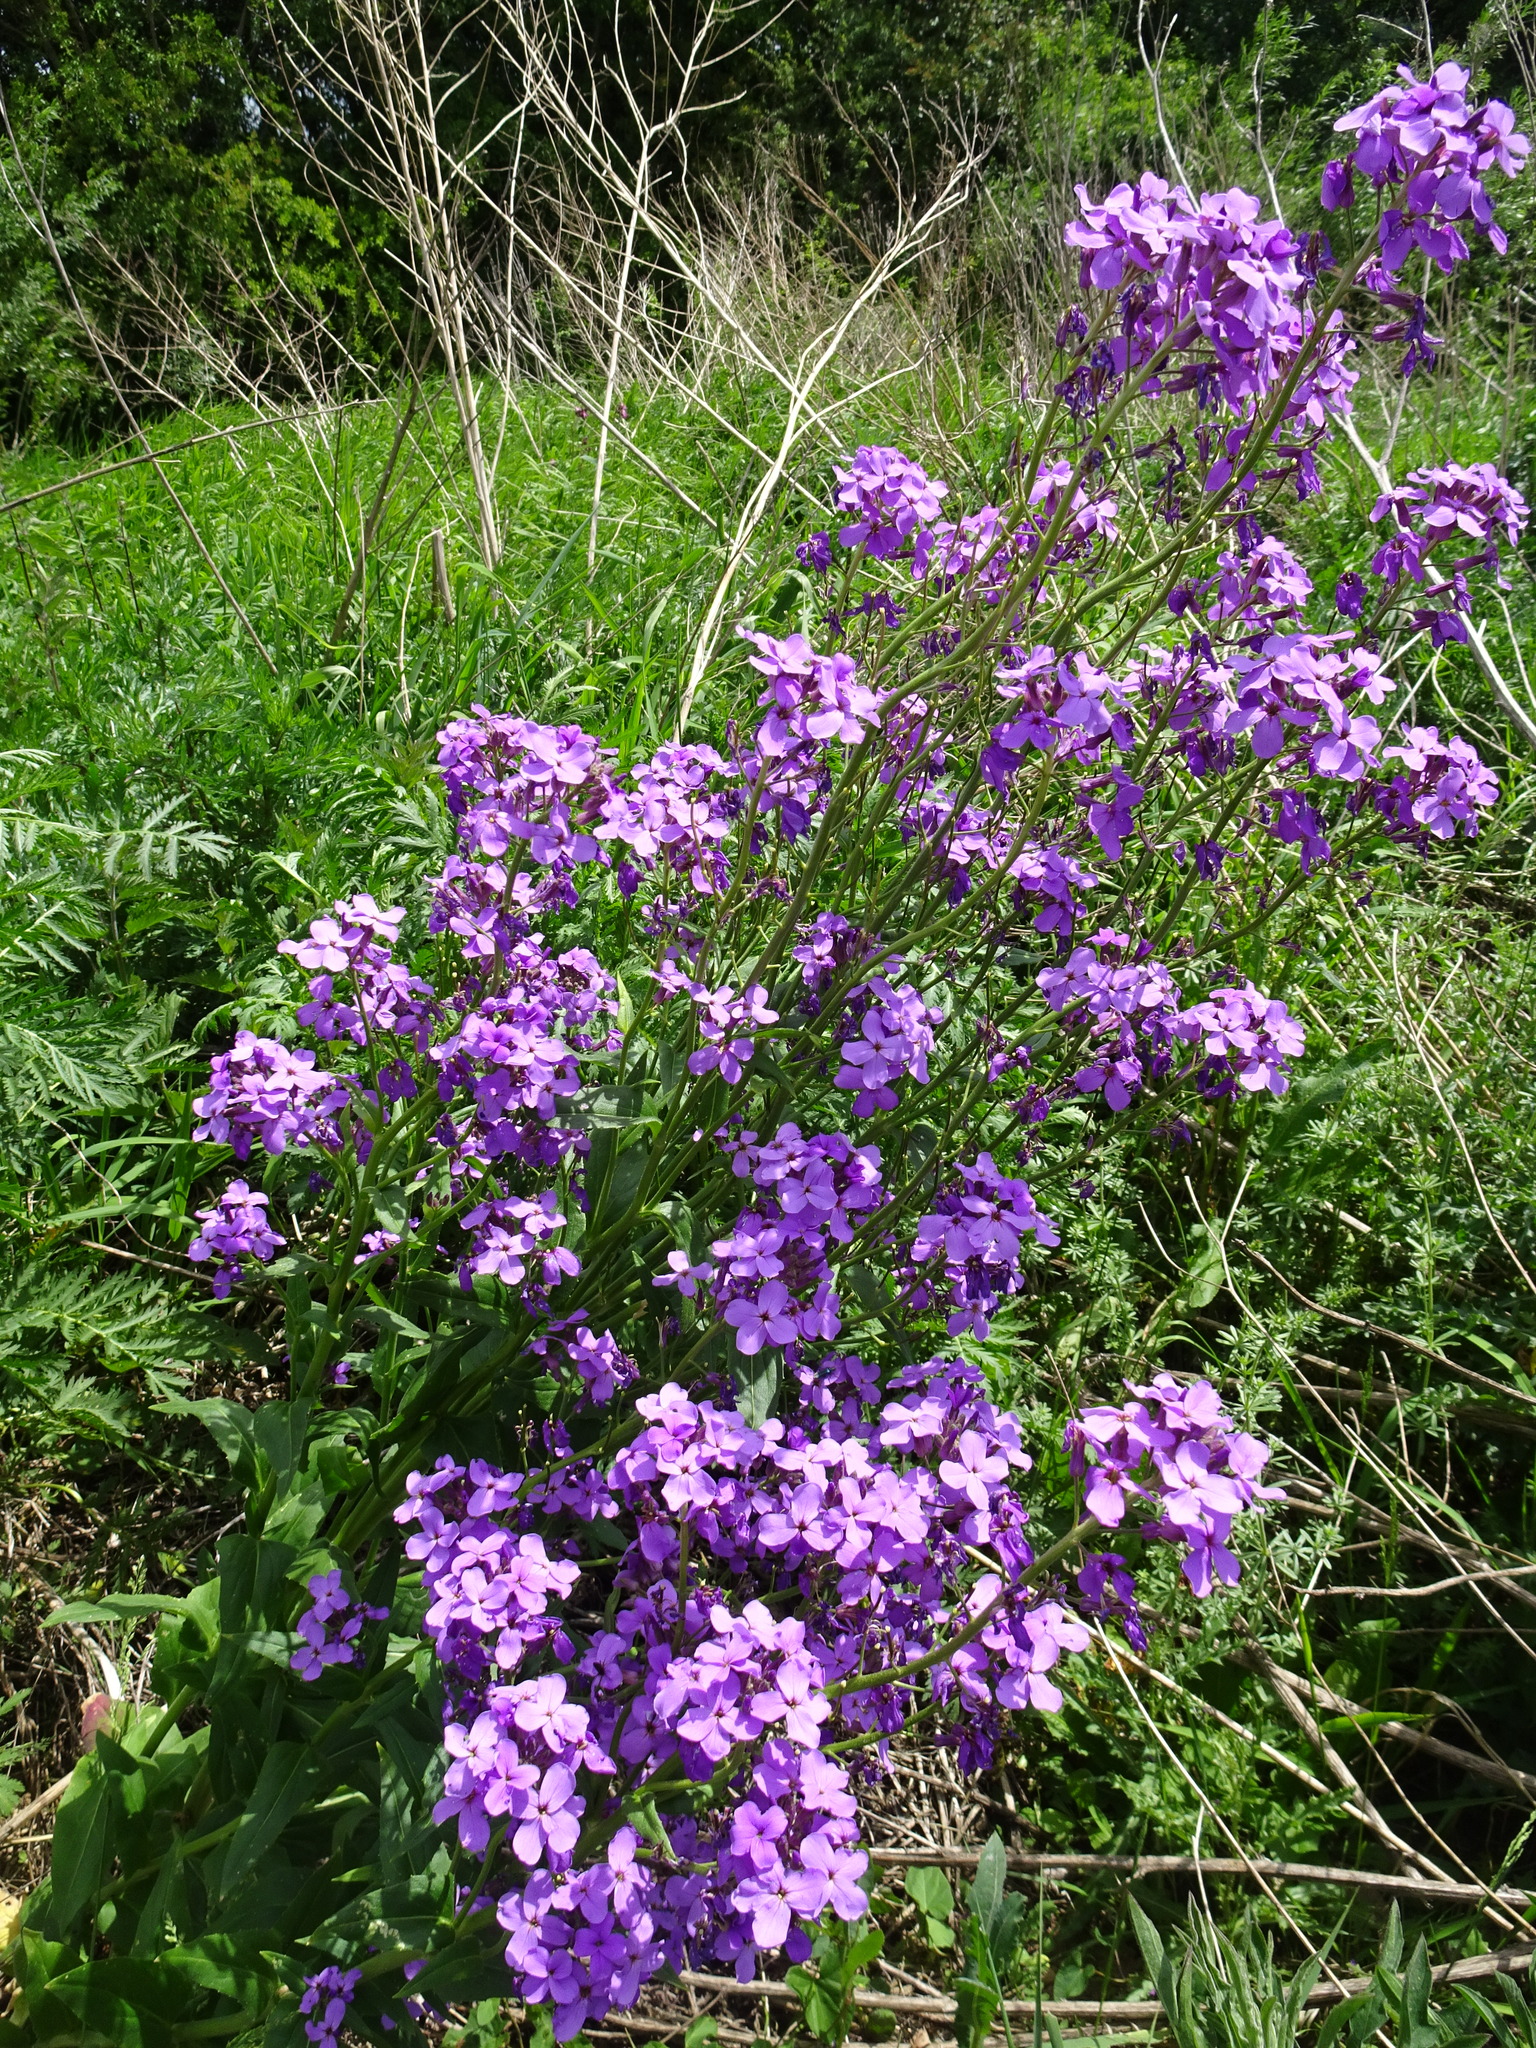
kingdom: Plantae
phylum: Tracheophyta
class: Magnoliopsida
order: Brassicales
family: Brassicaceae
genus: Hesperis
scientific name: Hesperis matronalis
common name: Dame's-violet
